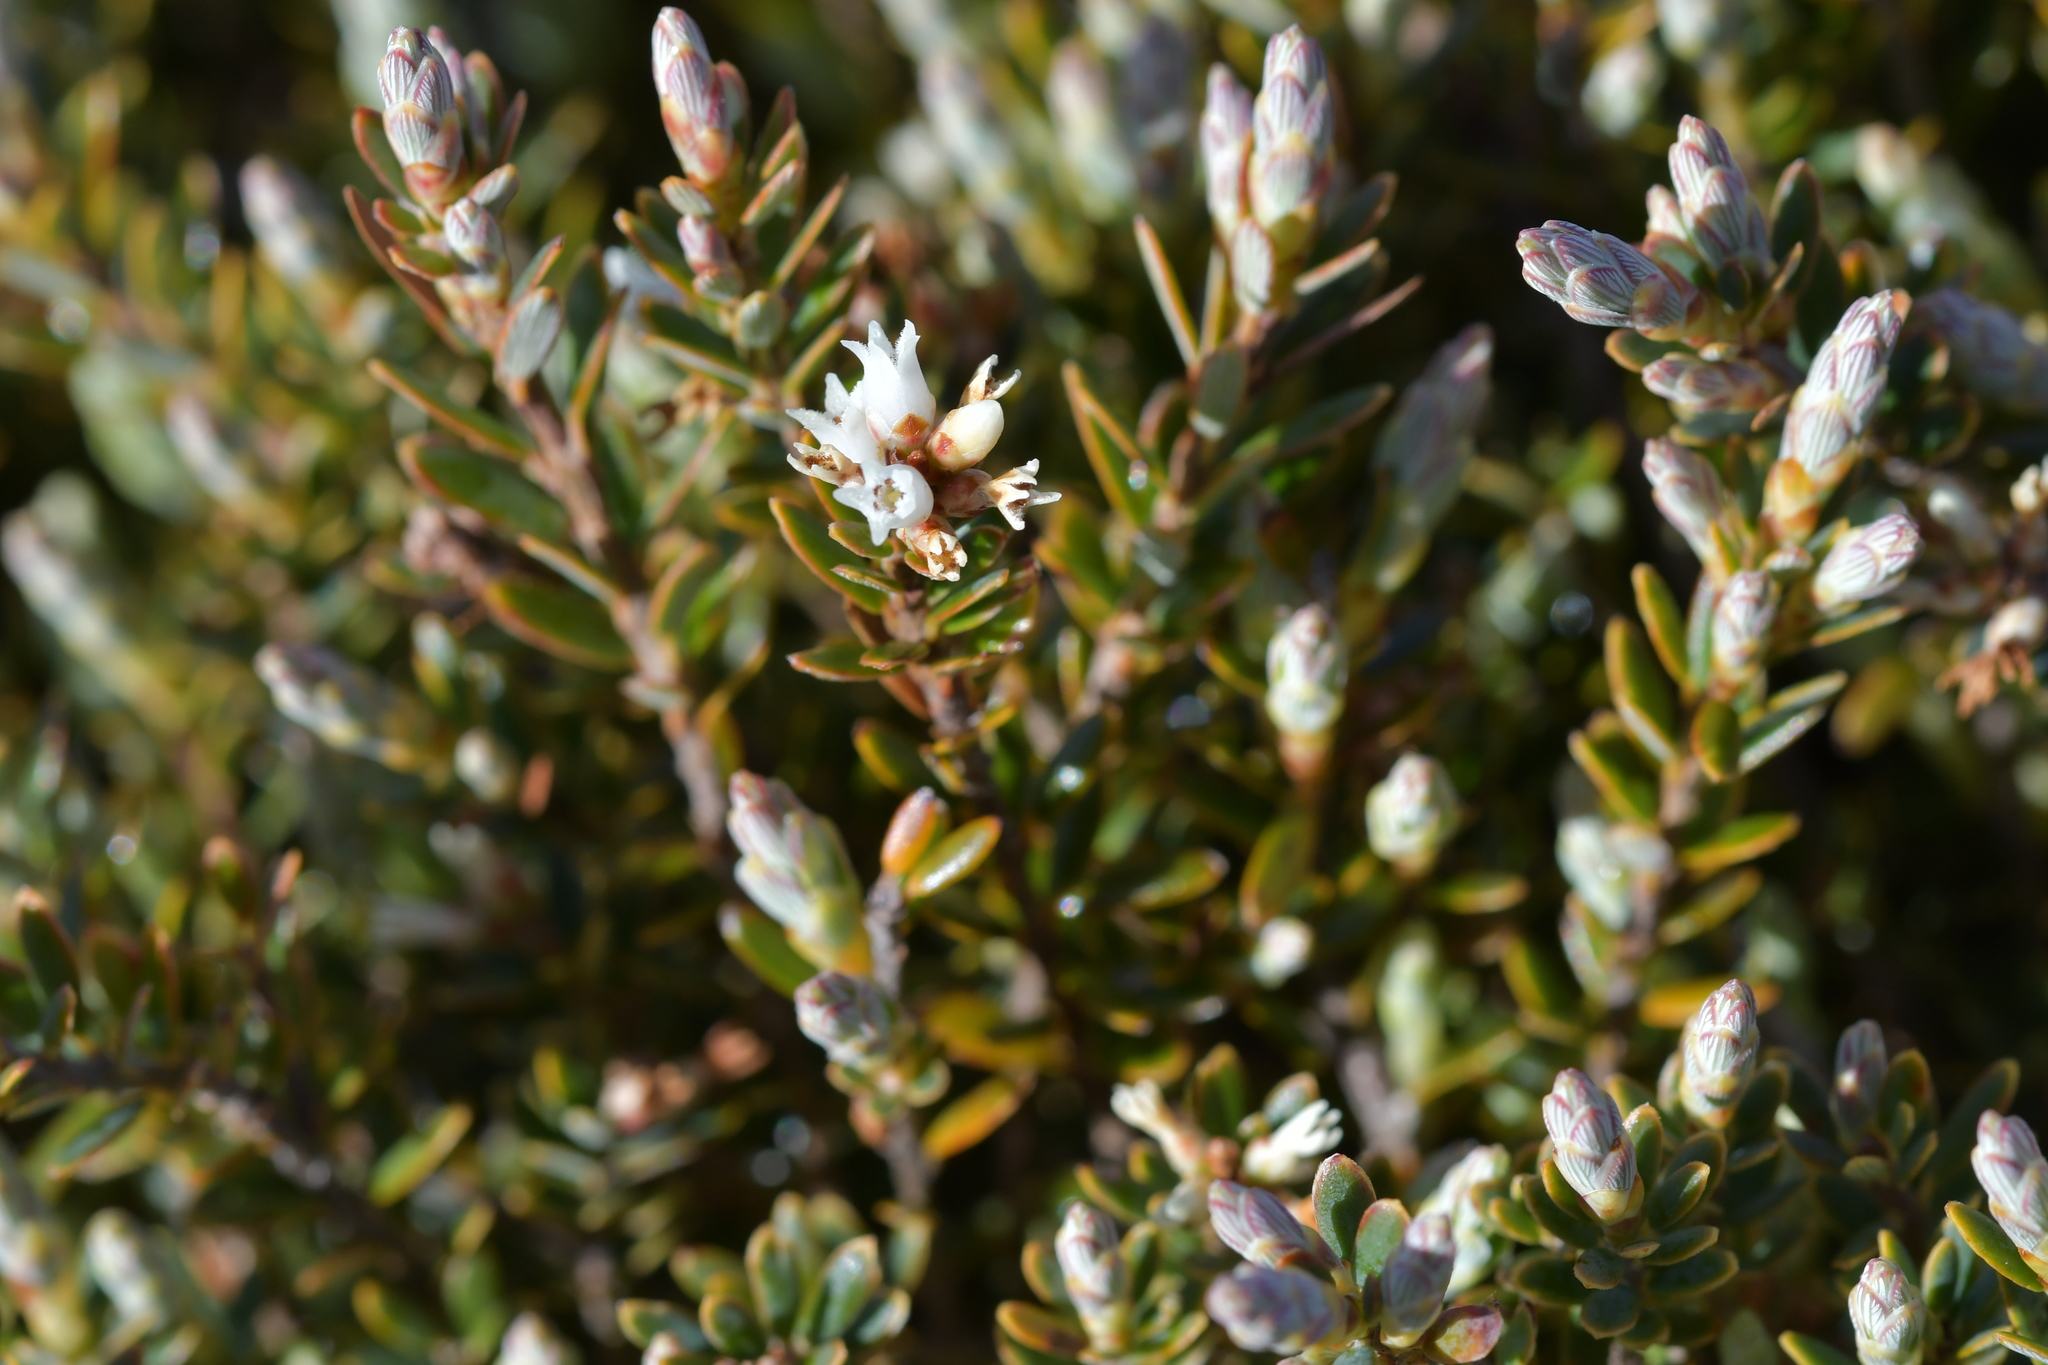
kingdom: Plantae
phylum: Tracheophyta
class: Magnoliopsida
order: Ericales
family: Ericaceae
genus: Acrothamnus
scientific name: Acrothamnus colensoi
